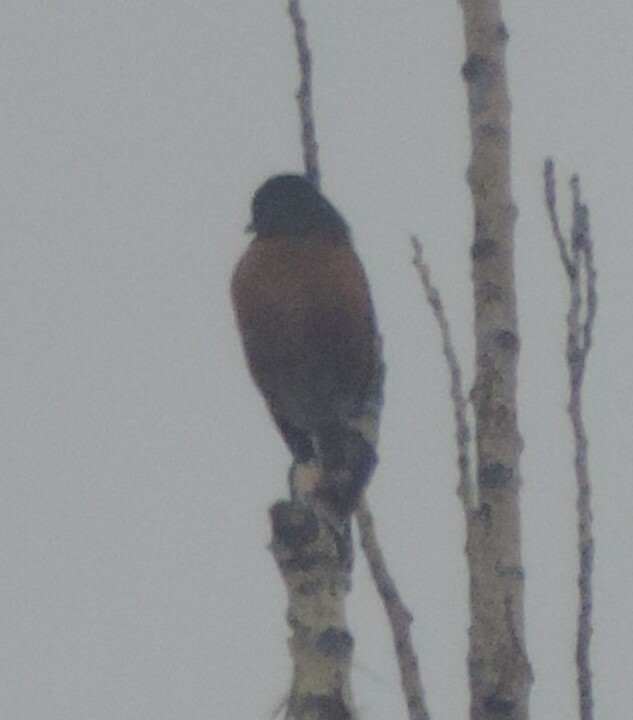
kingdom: Animalia
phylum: Chordata
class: Aves
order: Passeriformes
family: Turdidae
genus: Turdus
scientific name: Turdus migratorius
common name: American robin
